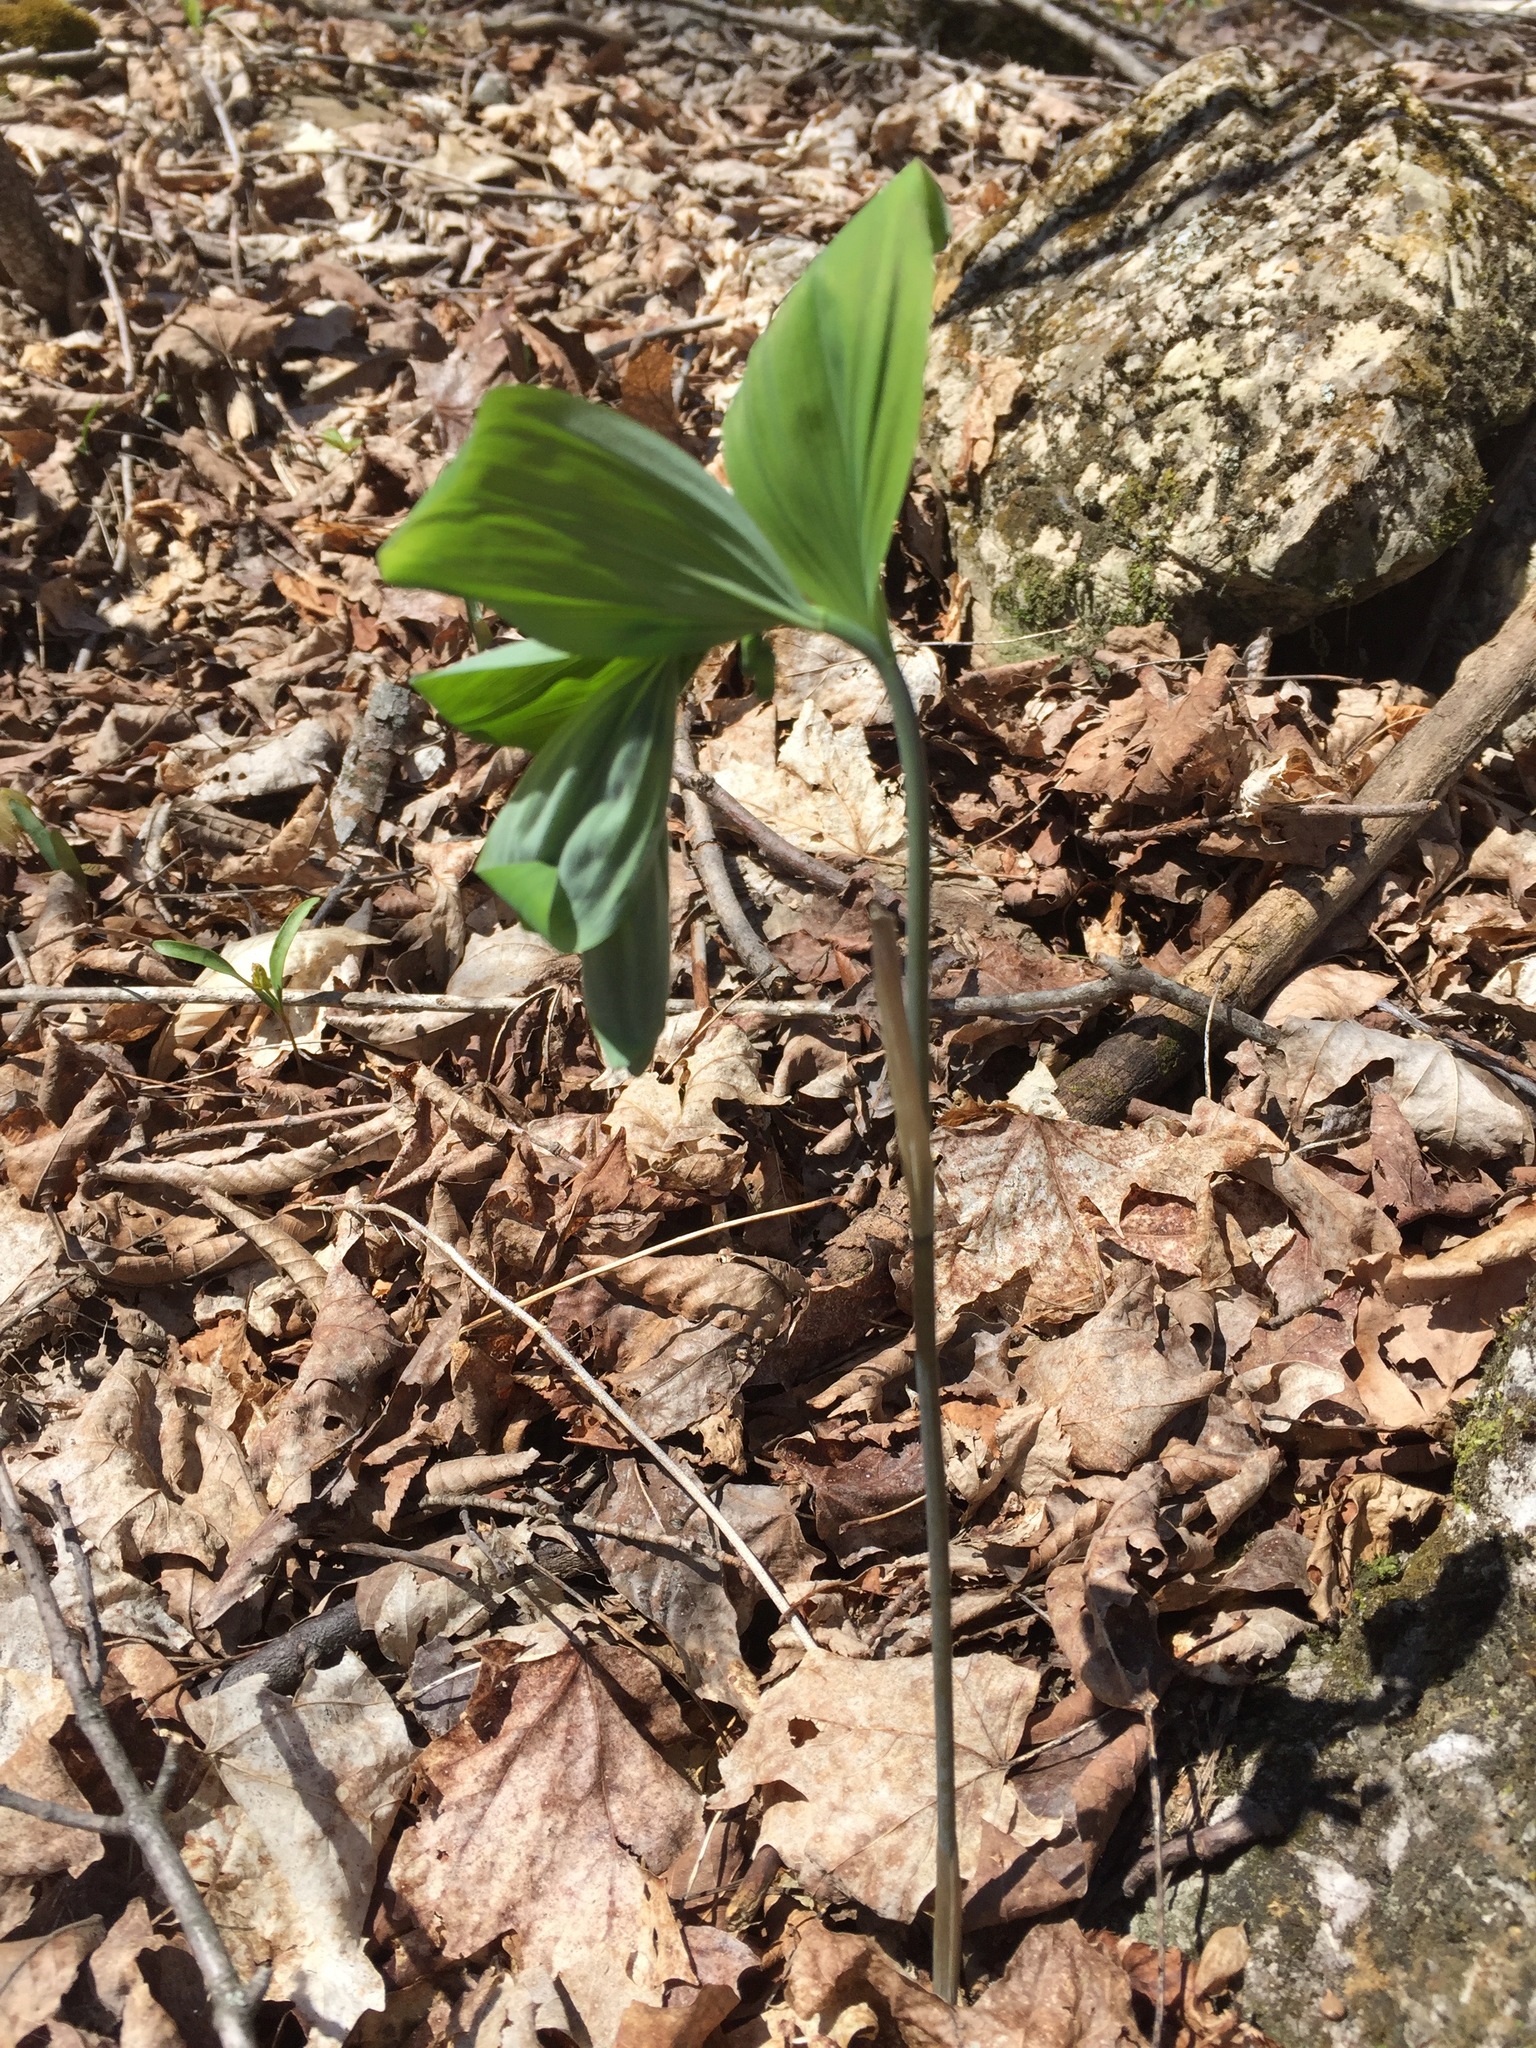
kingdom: Plantae
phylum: Tracheophyta
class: Liliopsida
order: Asparagales
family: Asparagaceae
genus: Polygonatum
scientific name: Polygonatum pubescens
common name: Downy solomon's seal
